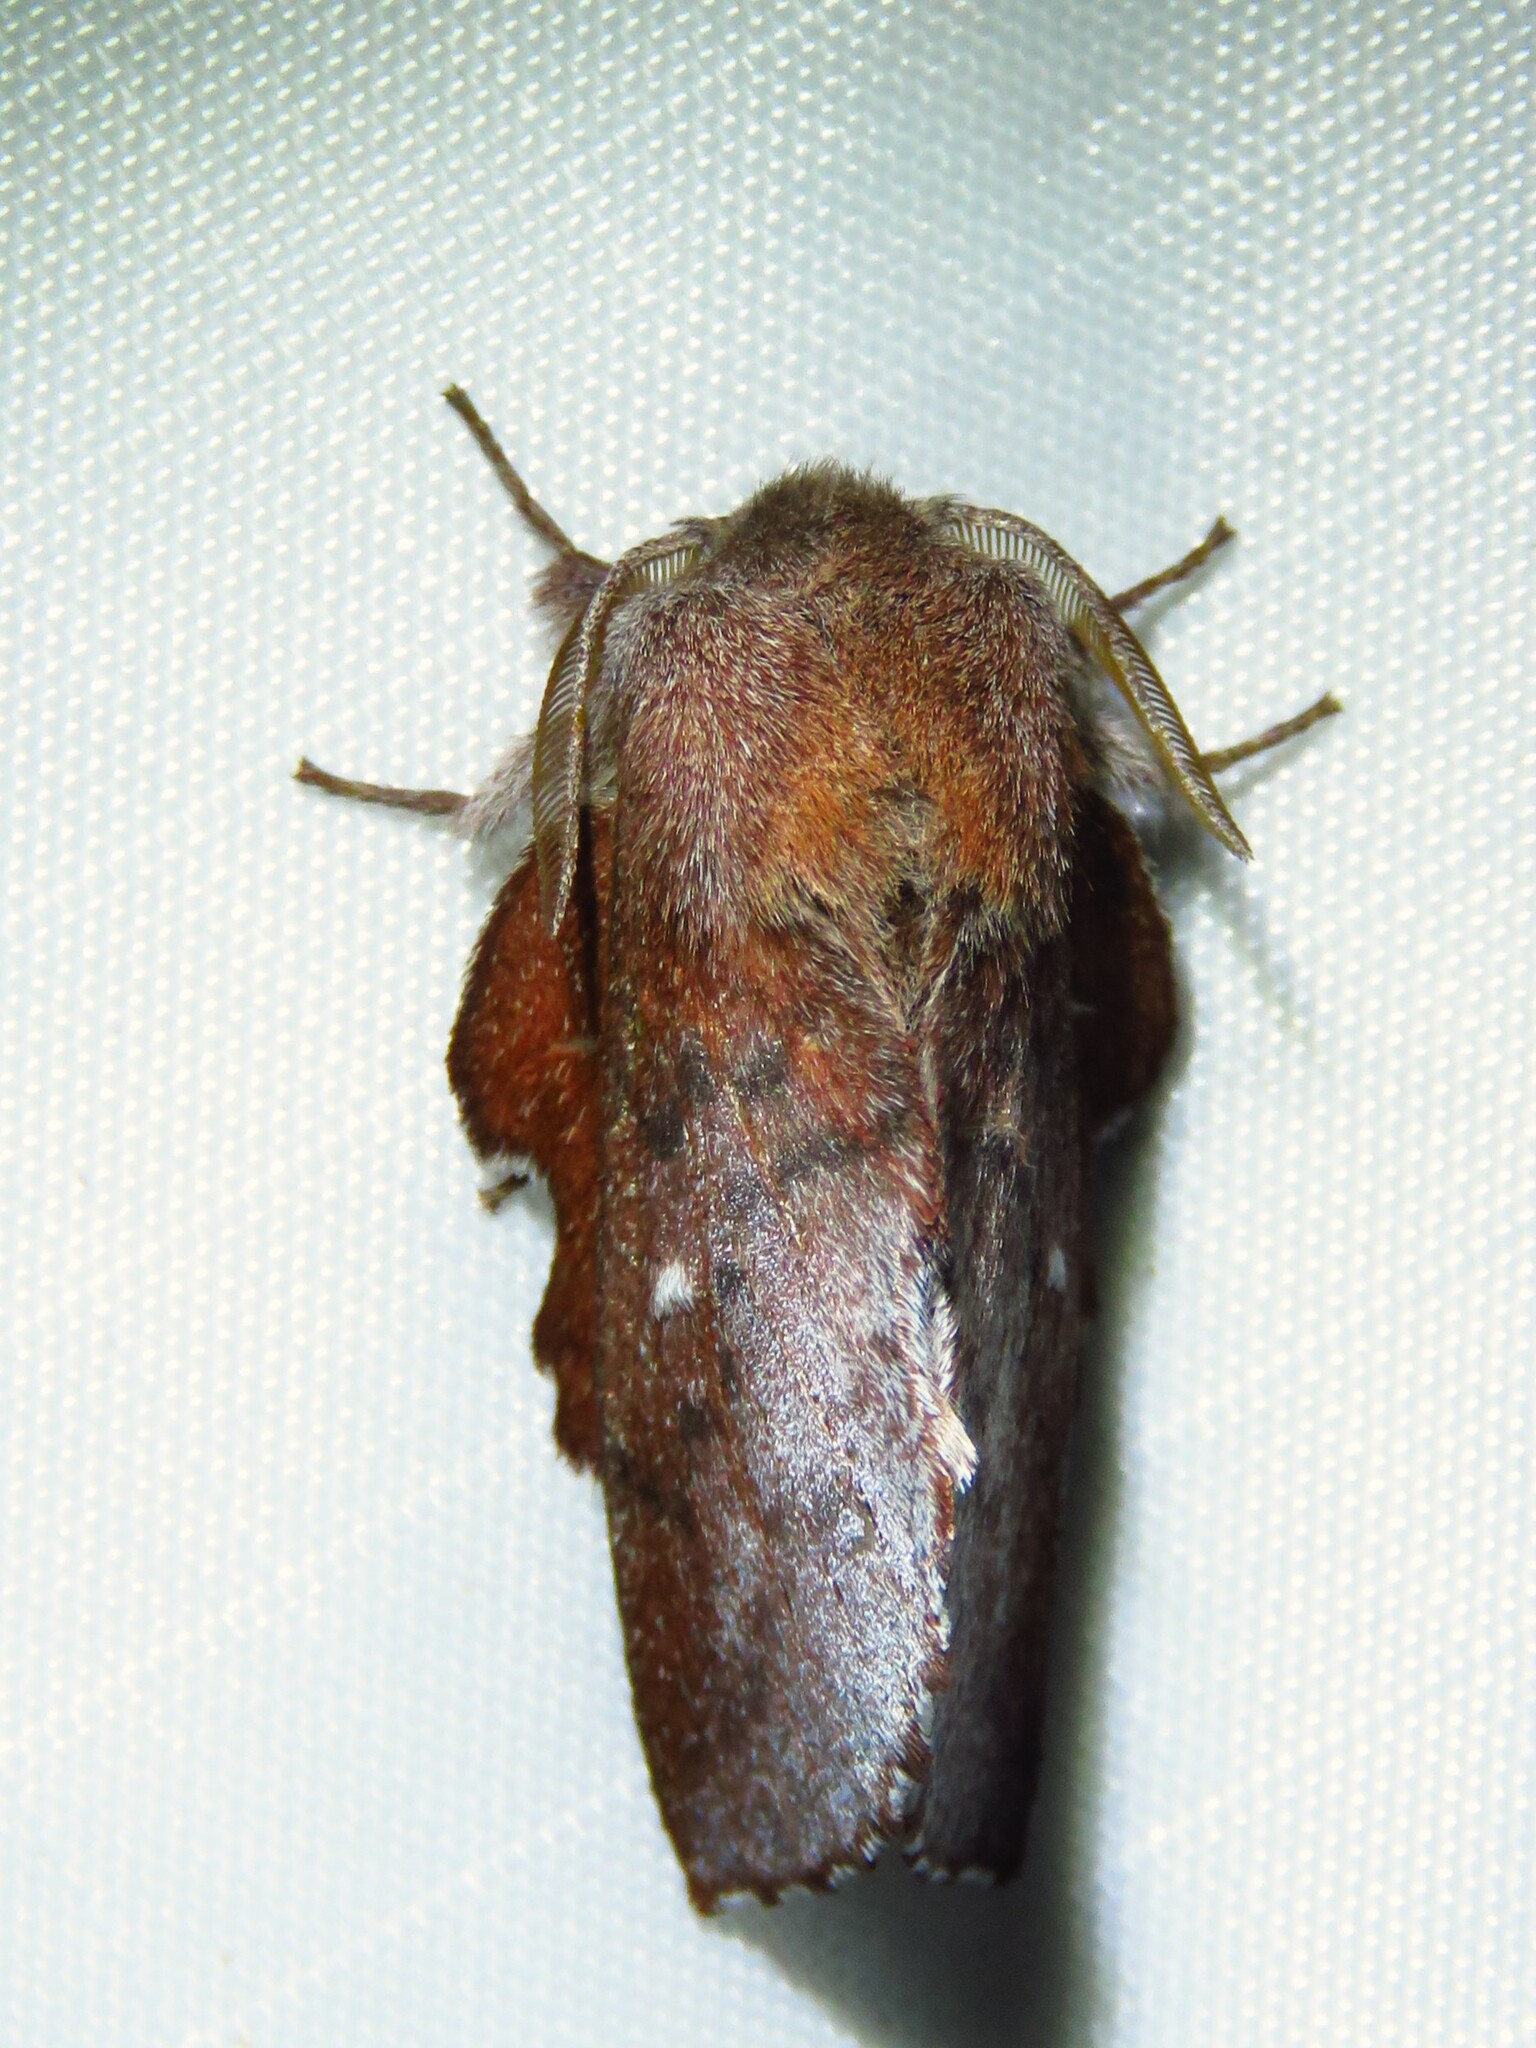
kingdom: Animalia
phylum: Arthropoda
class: Insecta
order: Lepidoptera
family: Lasiocampidae
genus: Phyllodesma
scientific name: Phyllodesma americana
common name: American lappet moth
